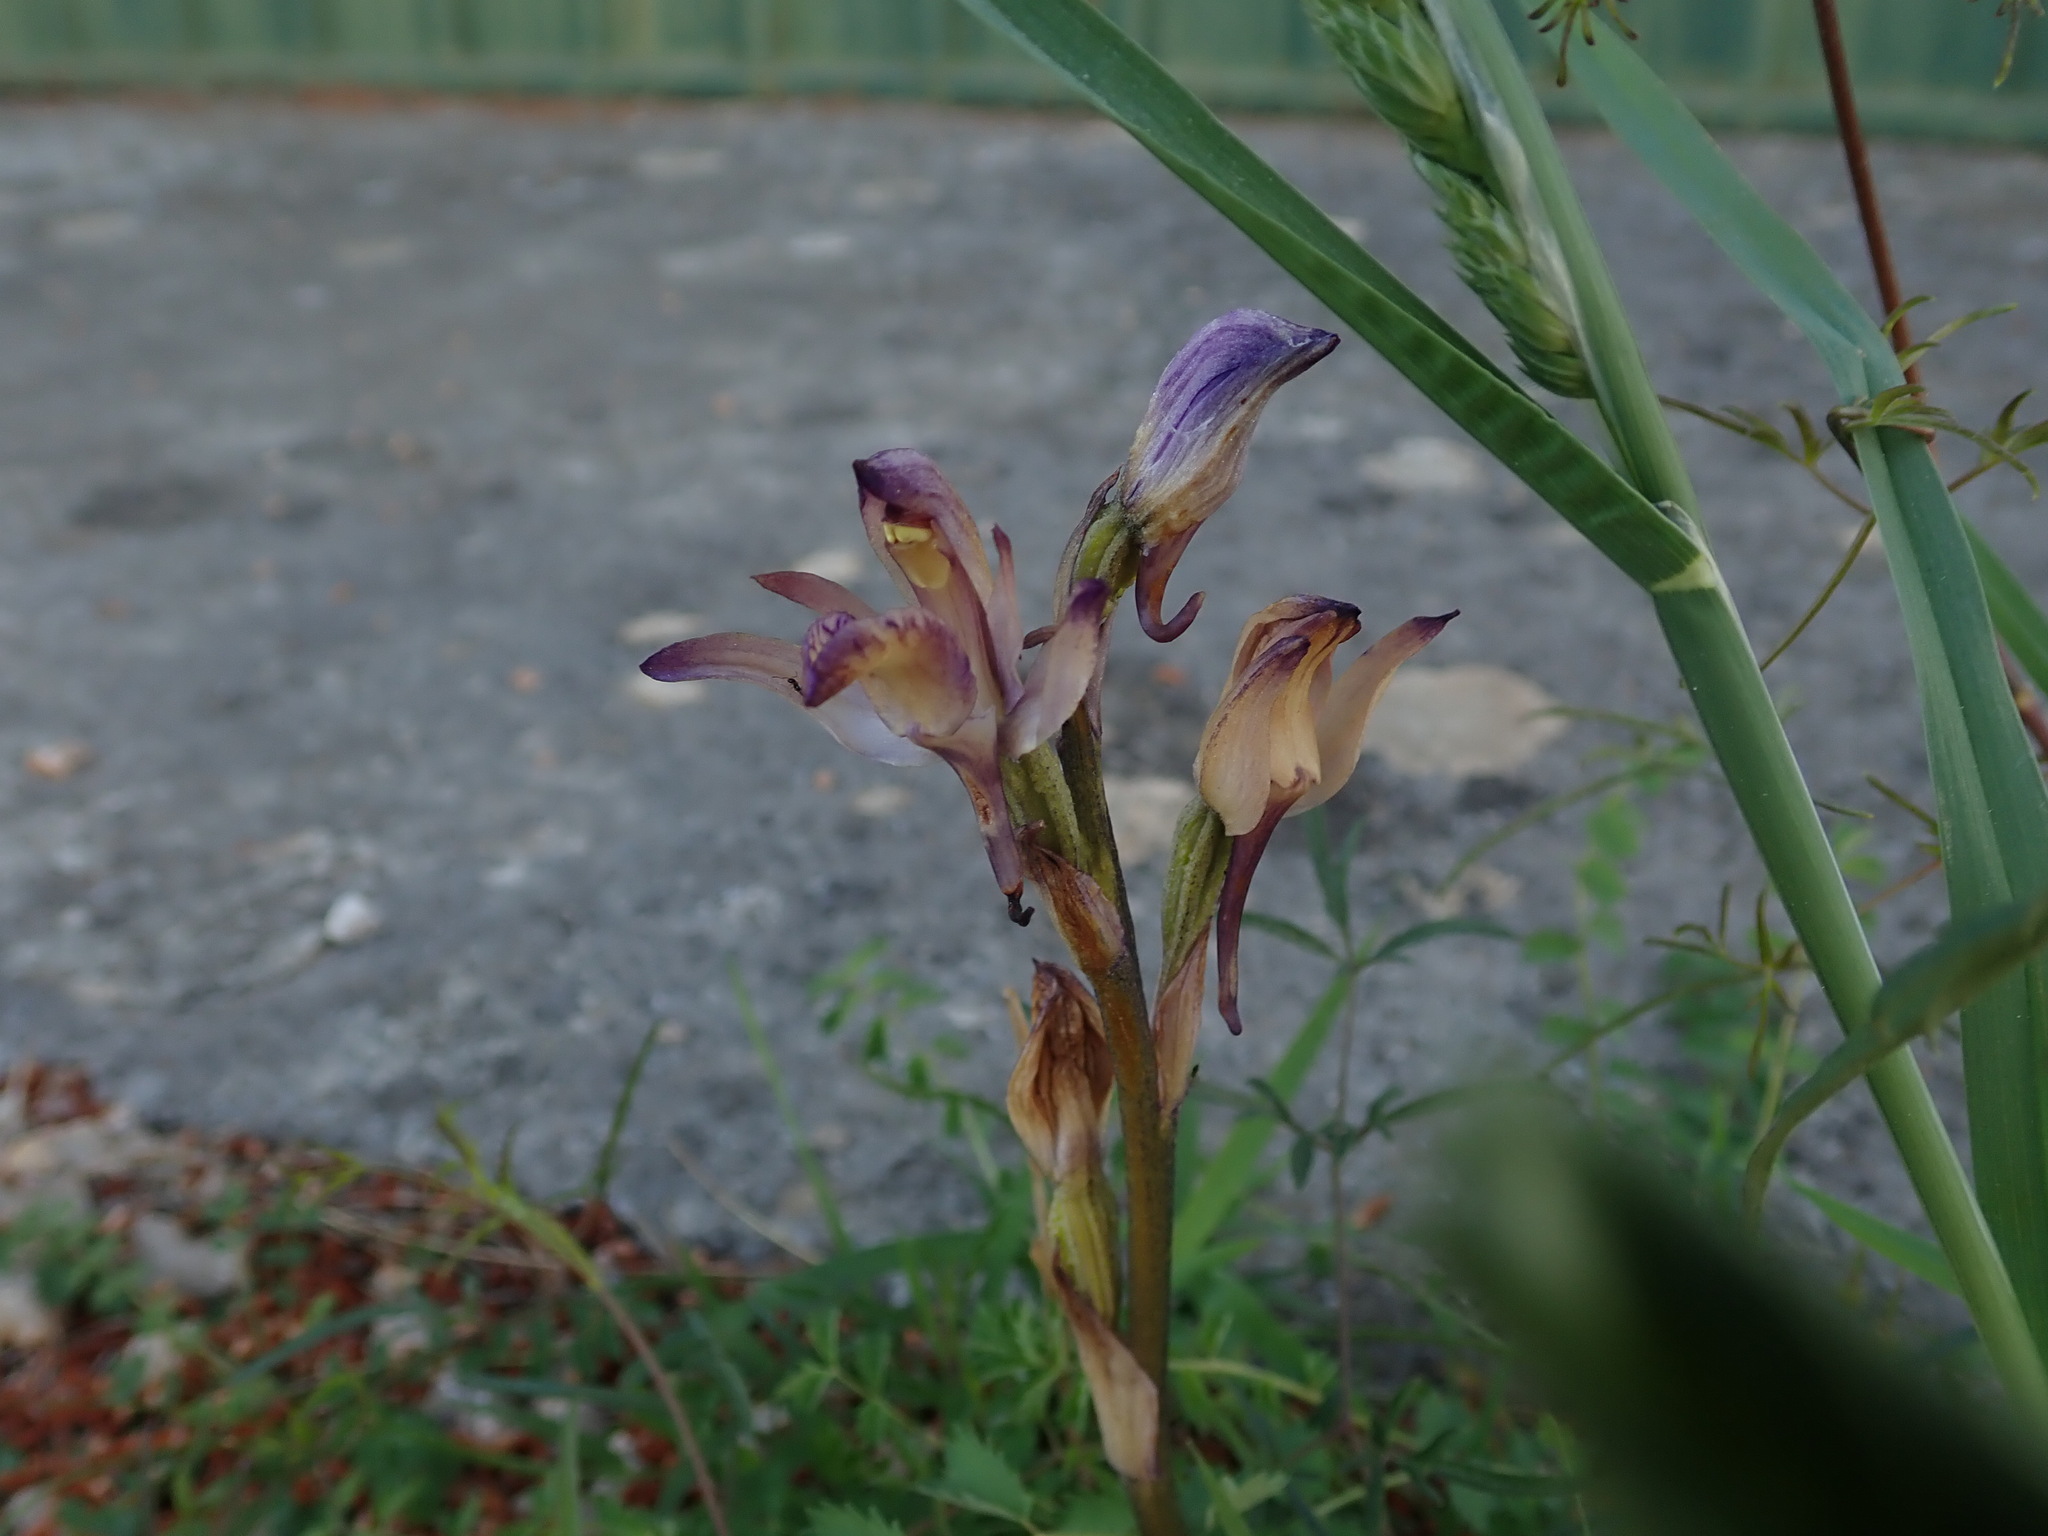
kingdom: Plantae
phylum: Tracheophyta
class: Liliopsida
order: Asparagales
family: Orchidaceae
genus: Limodorum
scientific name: Limodorum abortivum
